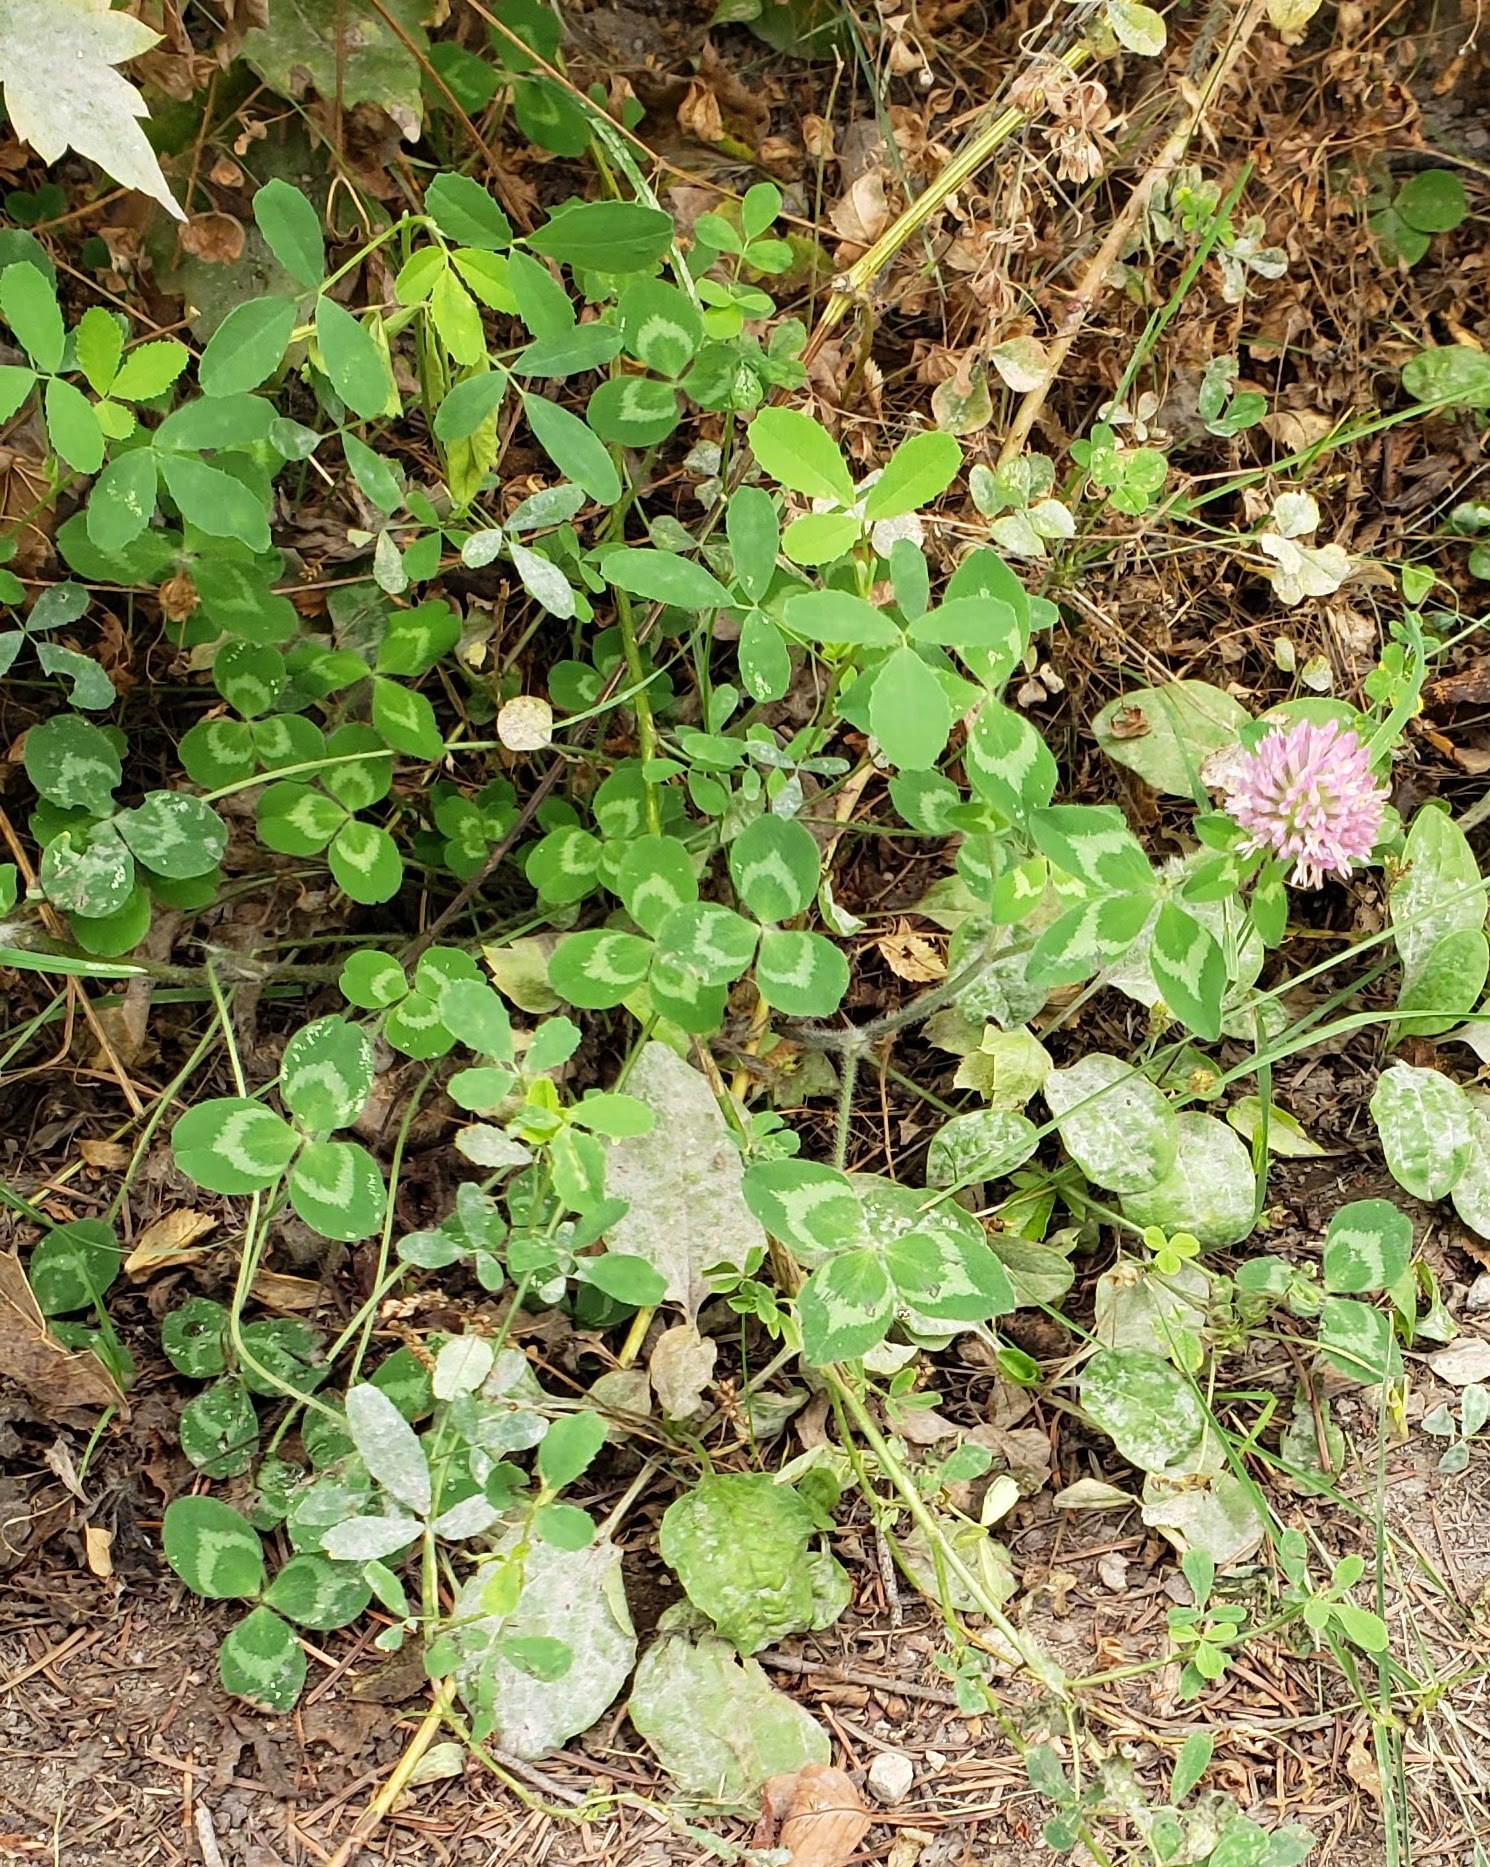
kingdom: Plantae
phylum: Tracheophyta
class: Magnoliopsida
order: Fabales
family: Fabaceae
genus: Trifolium
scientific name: Trifolium pratense
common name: Red clover
